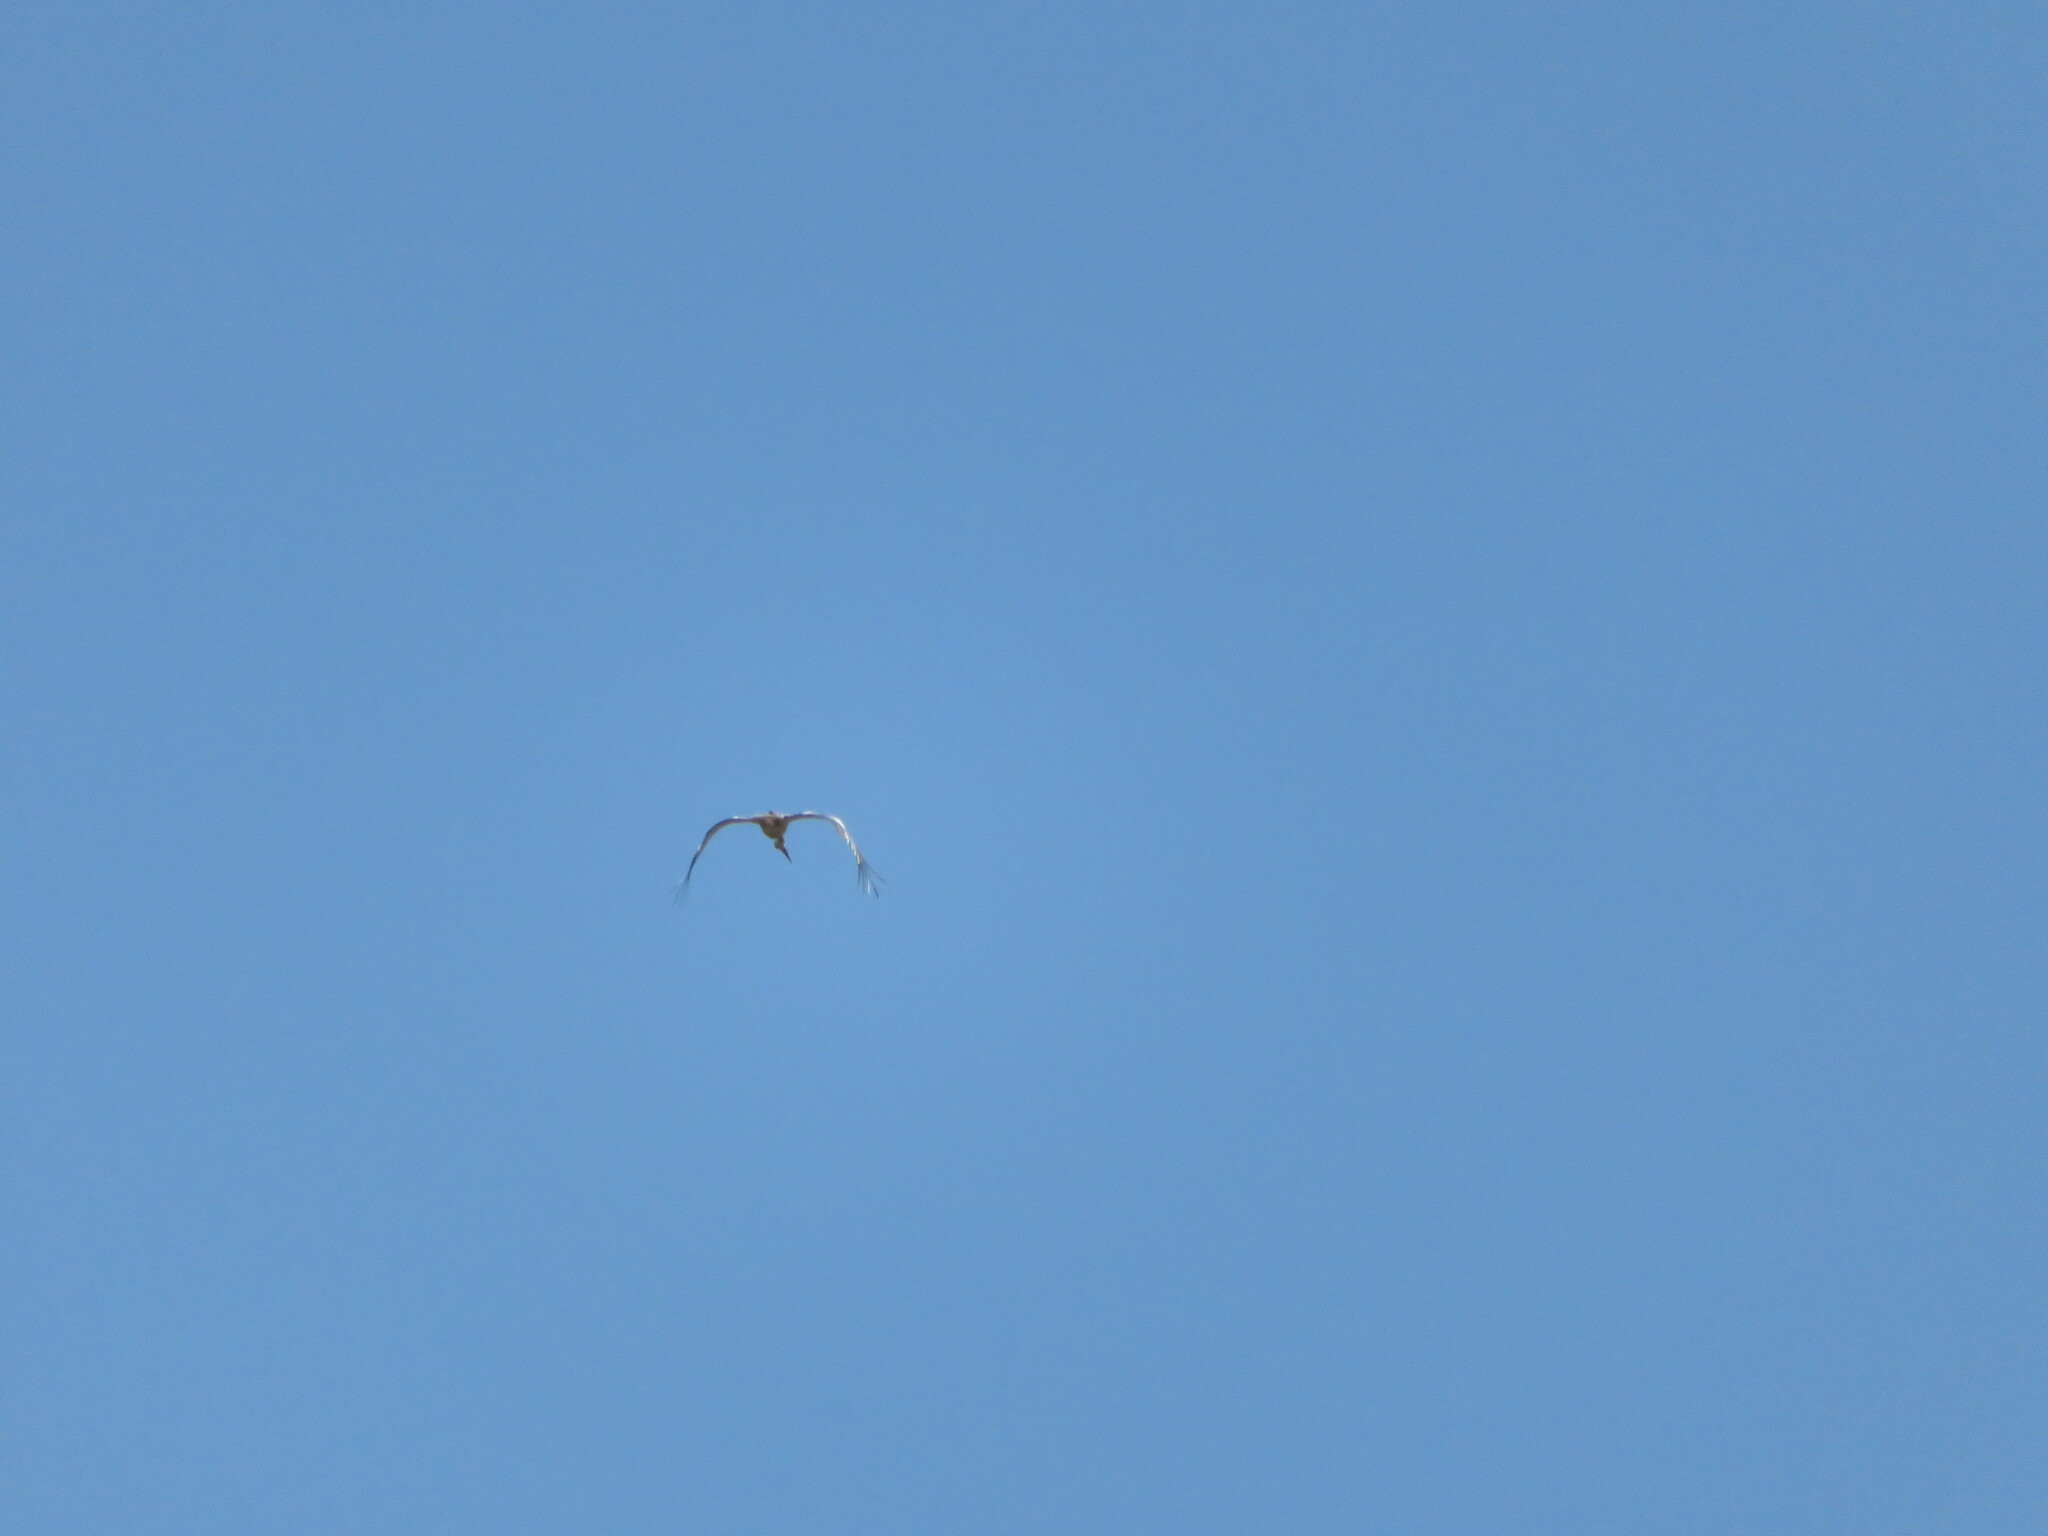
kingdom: Animalia
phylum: Chordata
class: Aves
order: Ciconiiformes
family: Ciconiidae
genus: Ciconia
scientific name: Ciconia ciconia
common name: White stork
